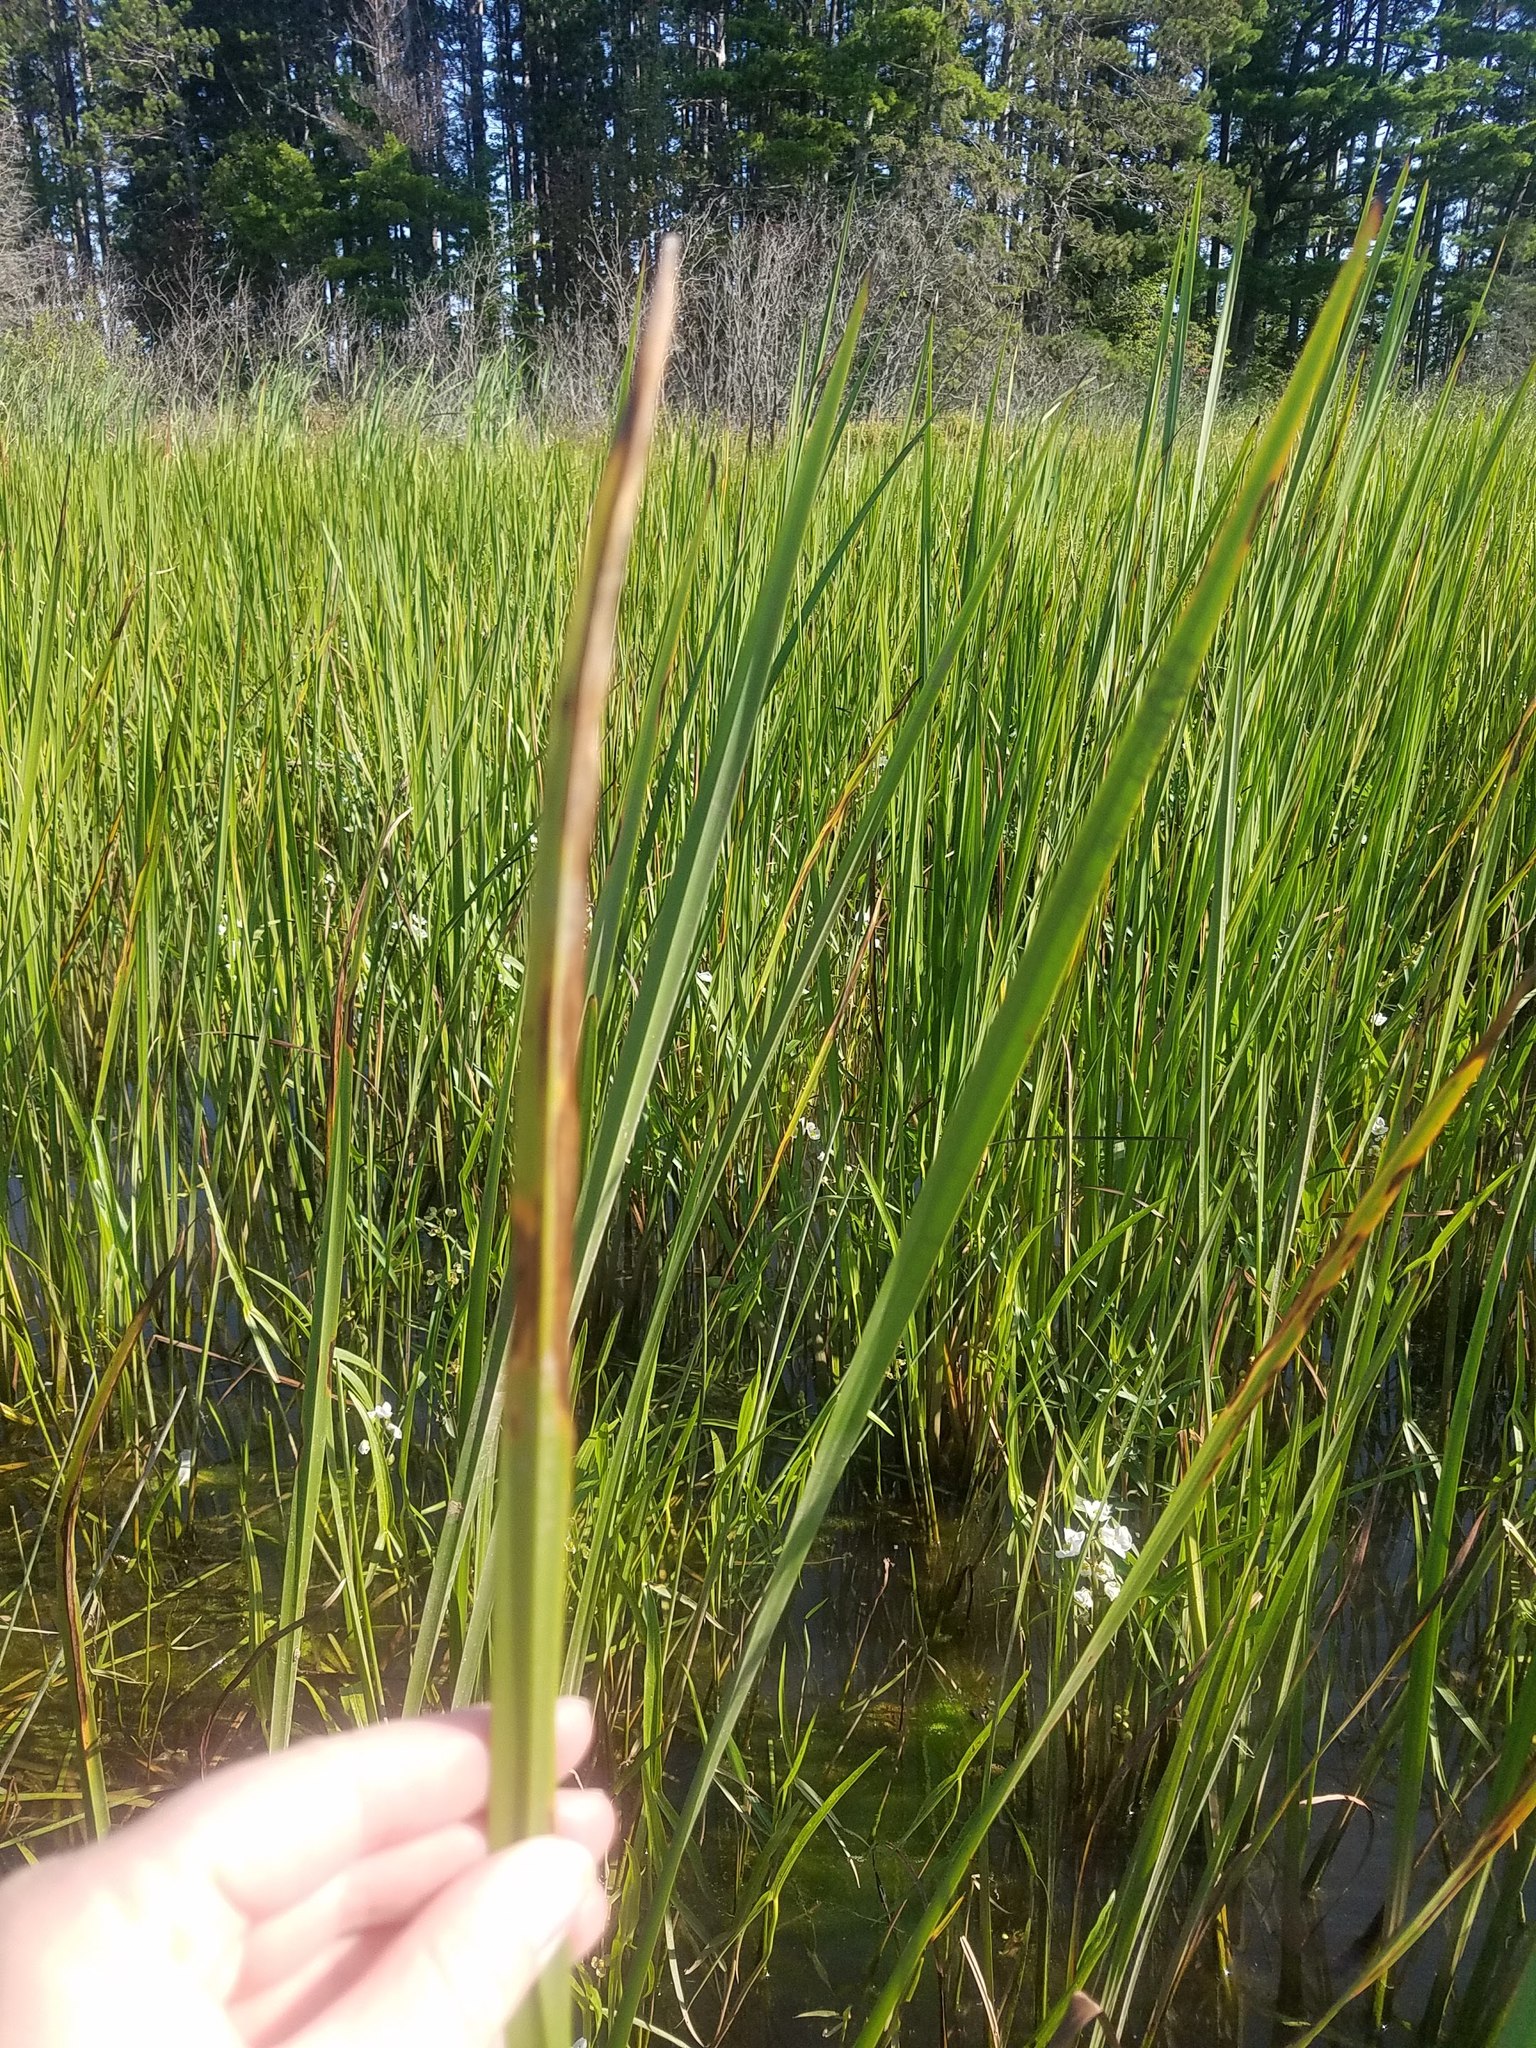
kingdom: Plantae
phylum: Tracheophyta
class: Liliopsida
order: Poales
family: Typhaceae
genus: Sparganium
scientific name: Sparganium eurycarpum
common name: Broad-fruited burreed
